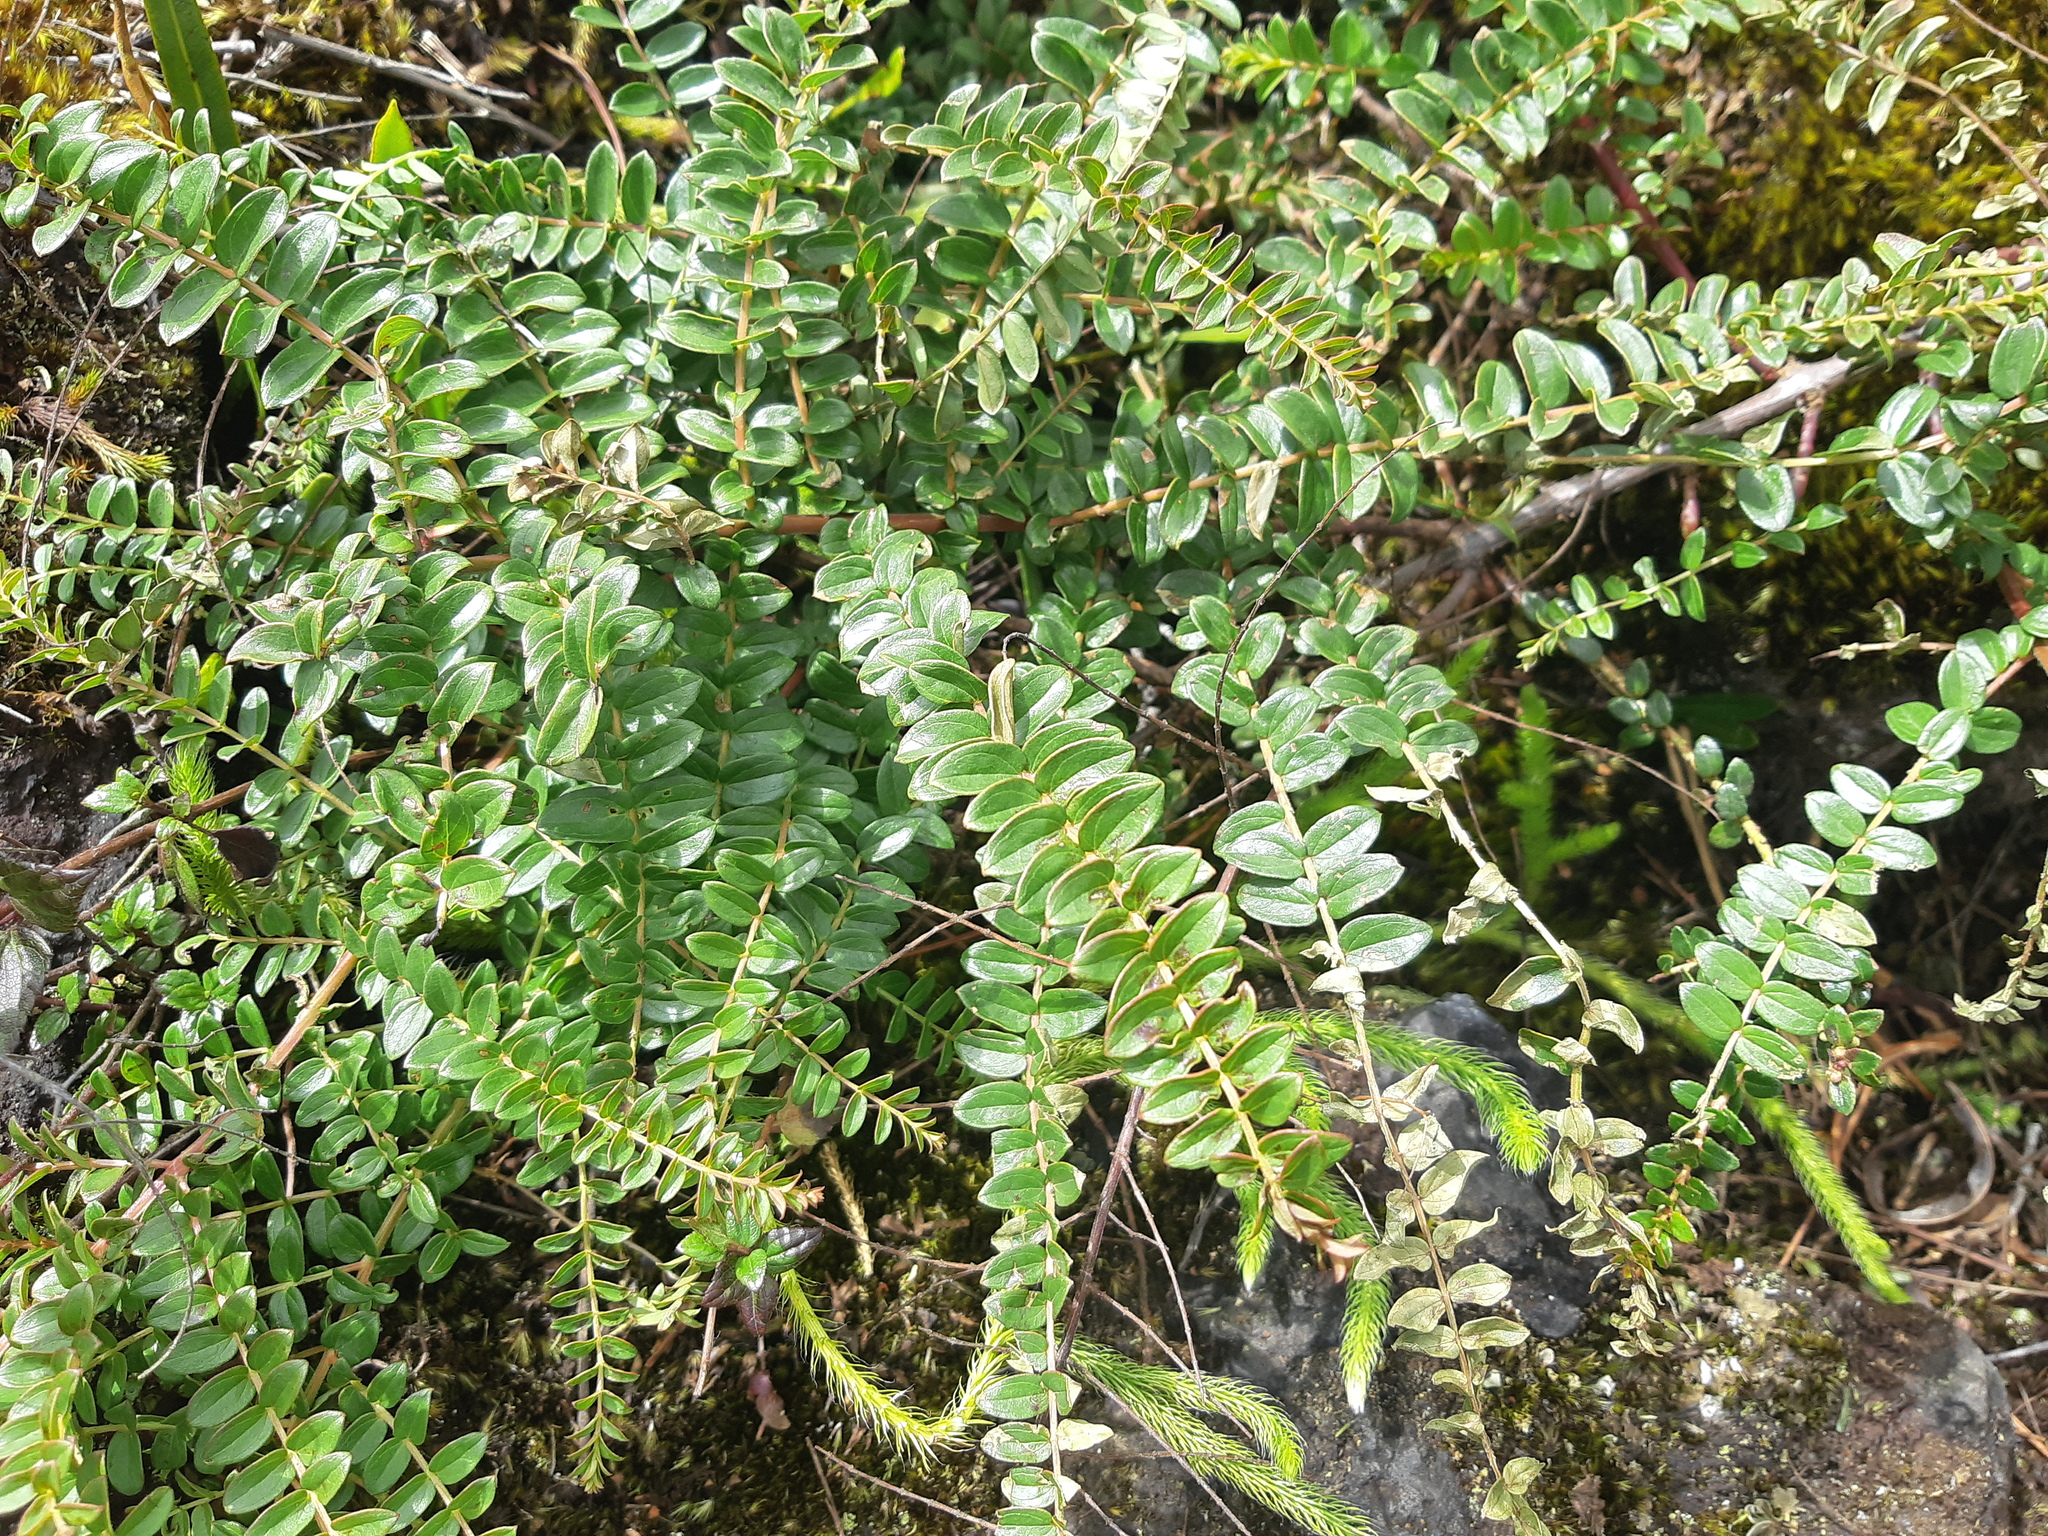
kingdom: Plantae
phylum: Tracheophyta
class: Magnoliopsida
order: Cucurbitales
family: Coriariaceae
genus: Coriaria
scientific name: Coriaria ruscifolia
